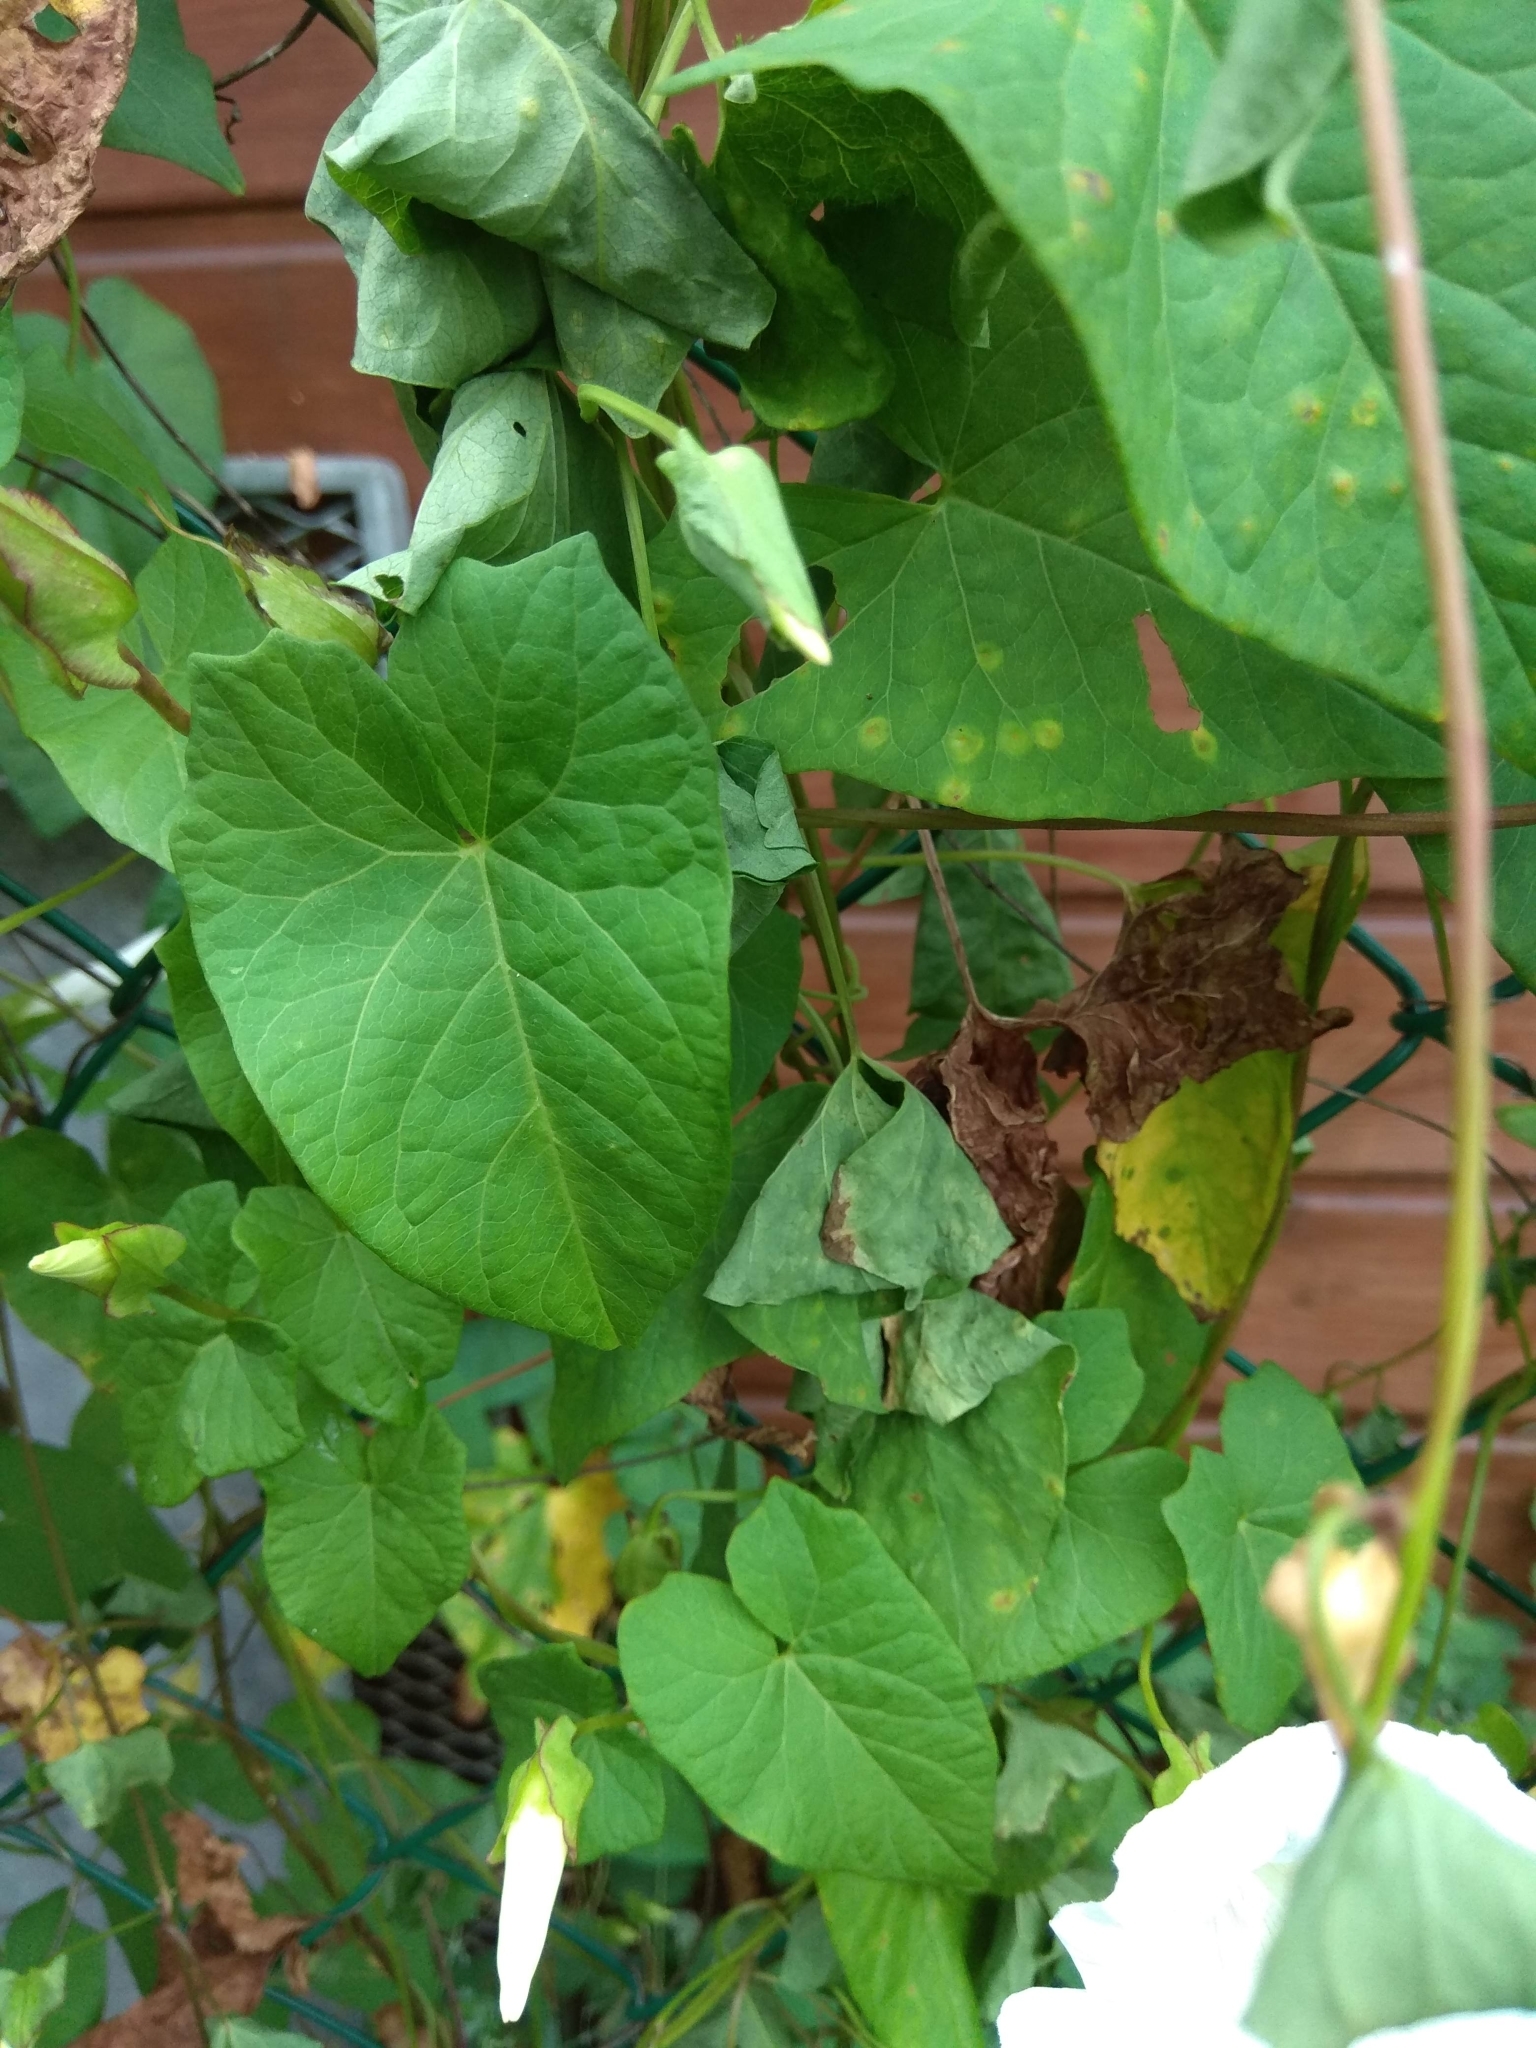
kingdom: Plantae
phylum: Tracheophyta
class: Magnoliopsida
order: Solanales
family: Convolvulaceae
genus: Calystegia
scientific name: Calystegia sepium
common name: Hedge bindweed
